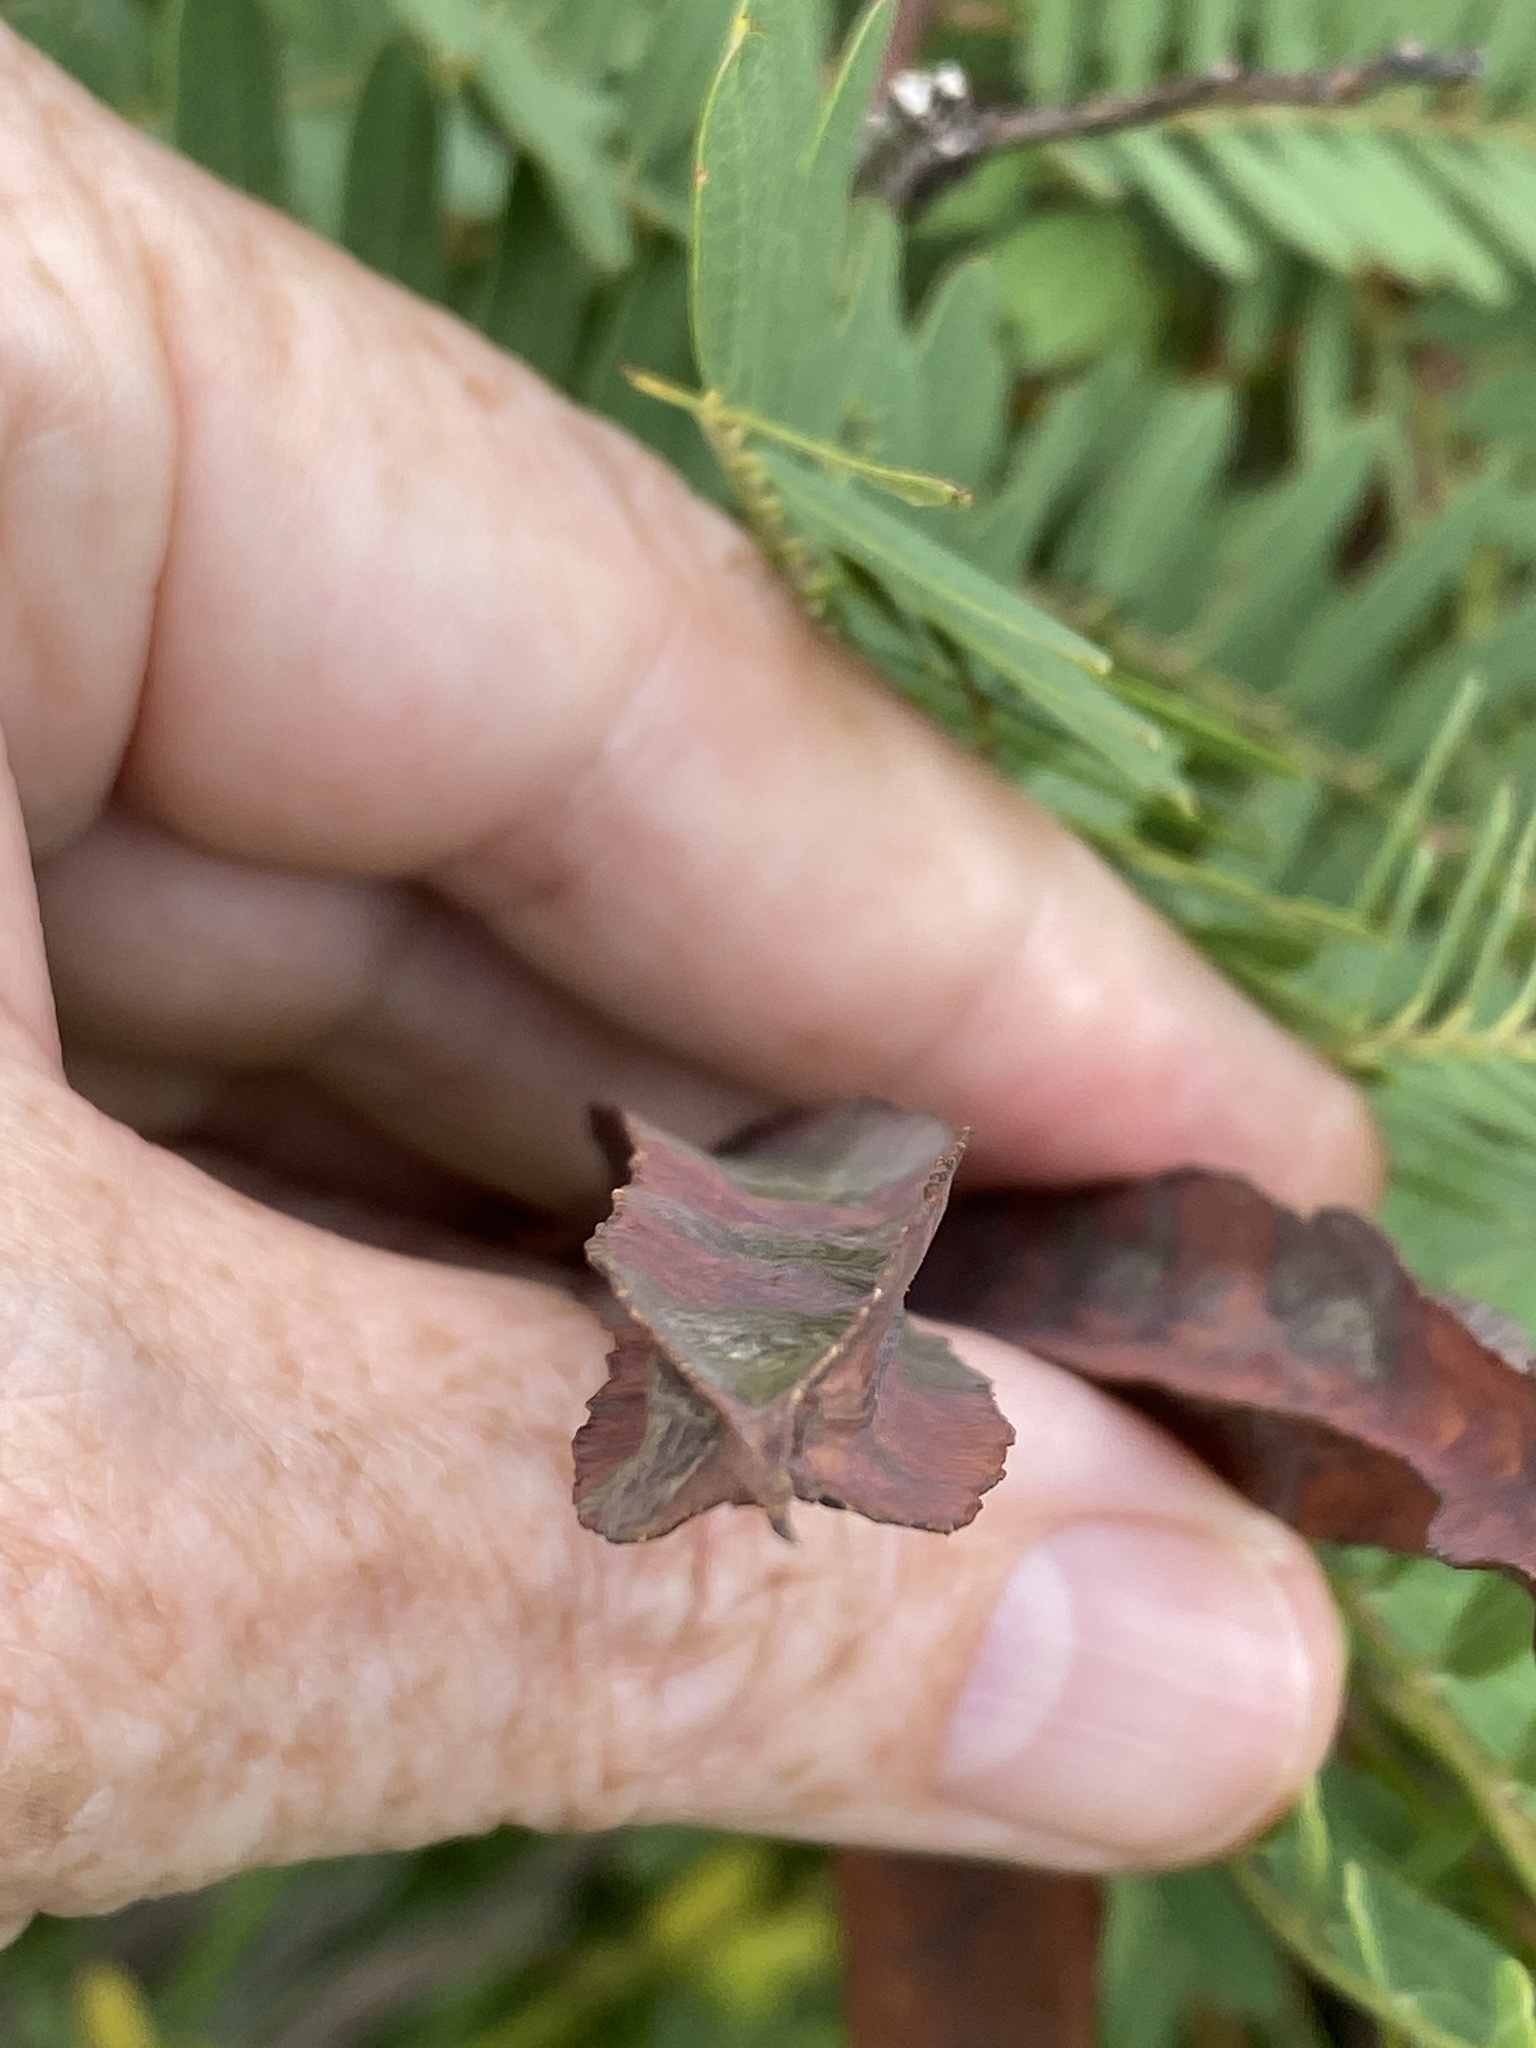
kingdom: Plantae
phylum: Tracheophyta
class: Magnoliopsida
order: Fabales
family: Fabaceae
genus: Sesbania
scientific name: Sesbania punicea
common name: Rattlebox
